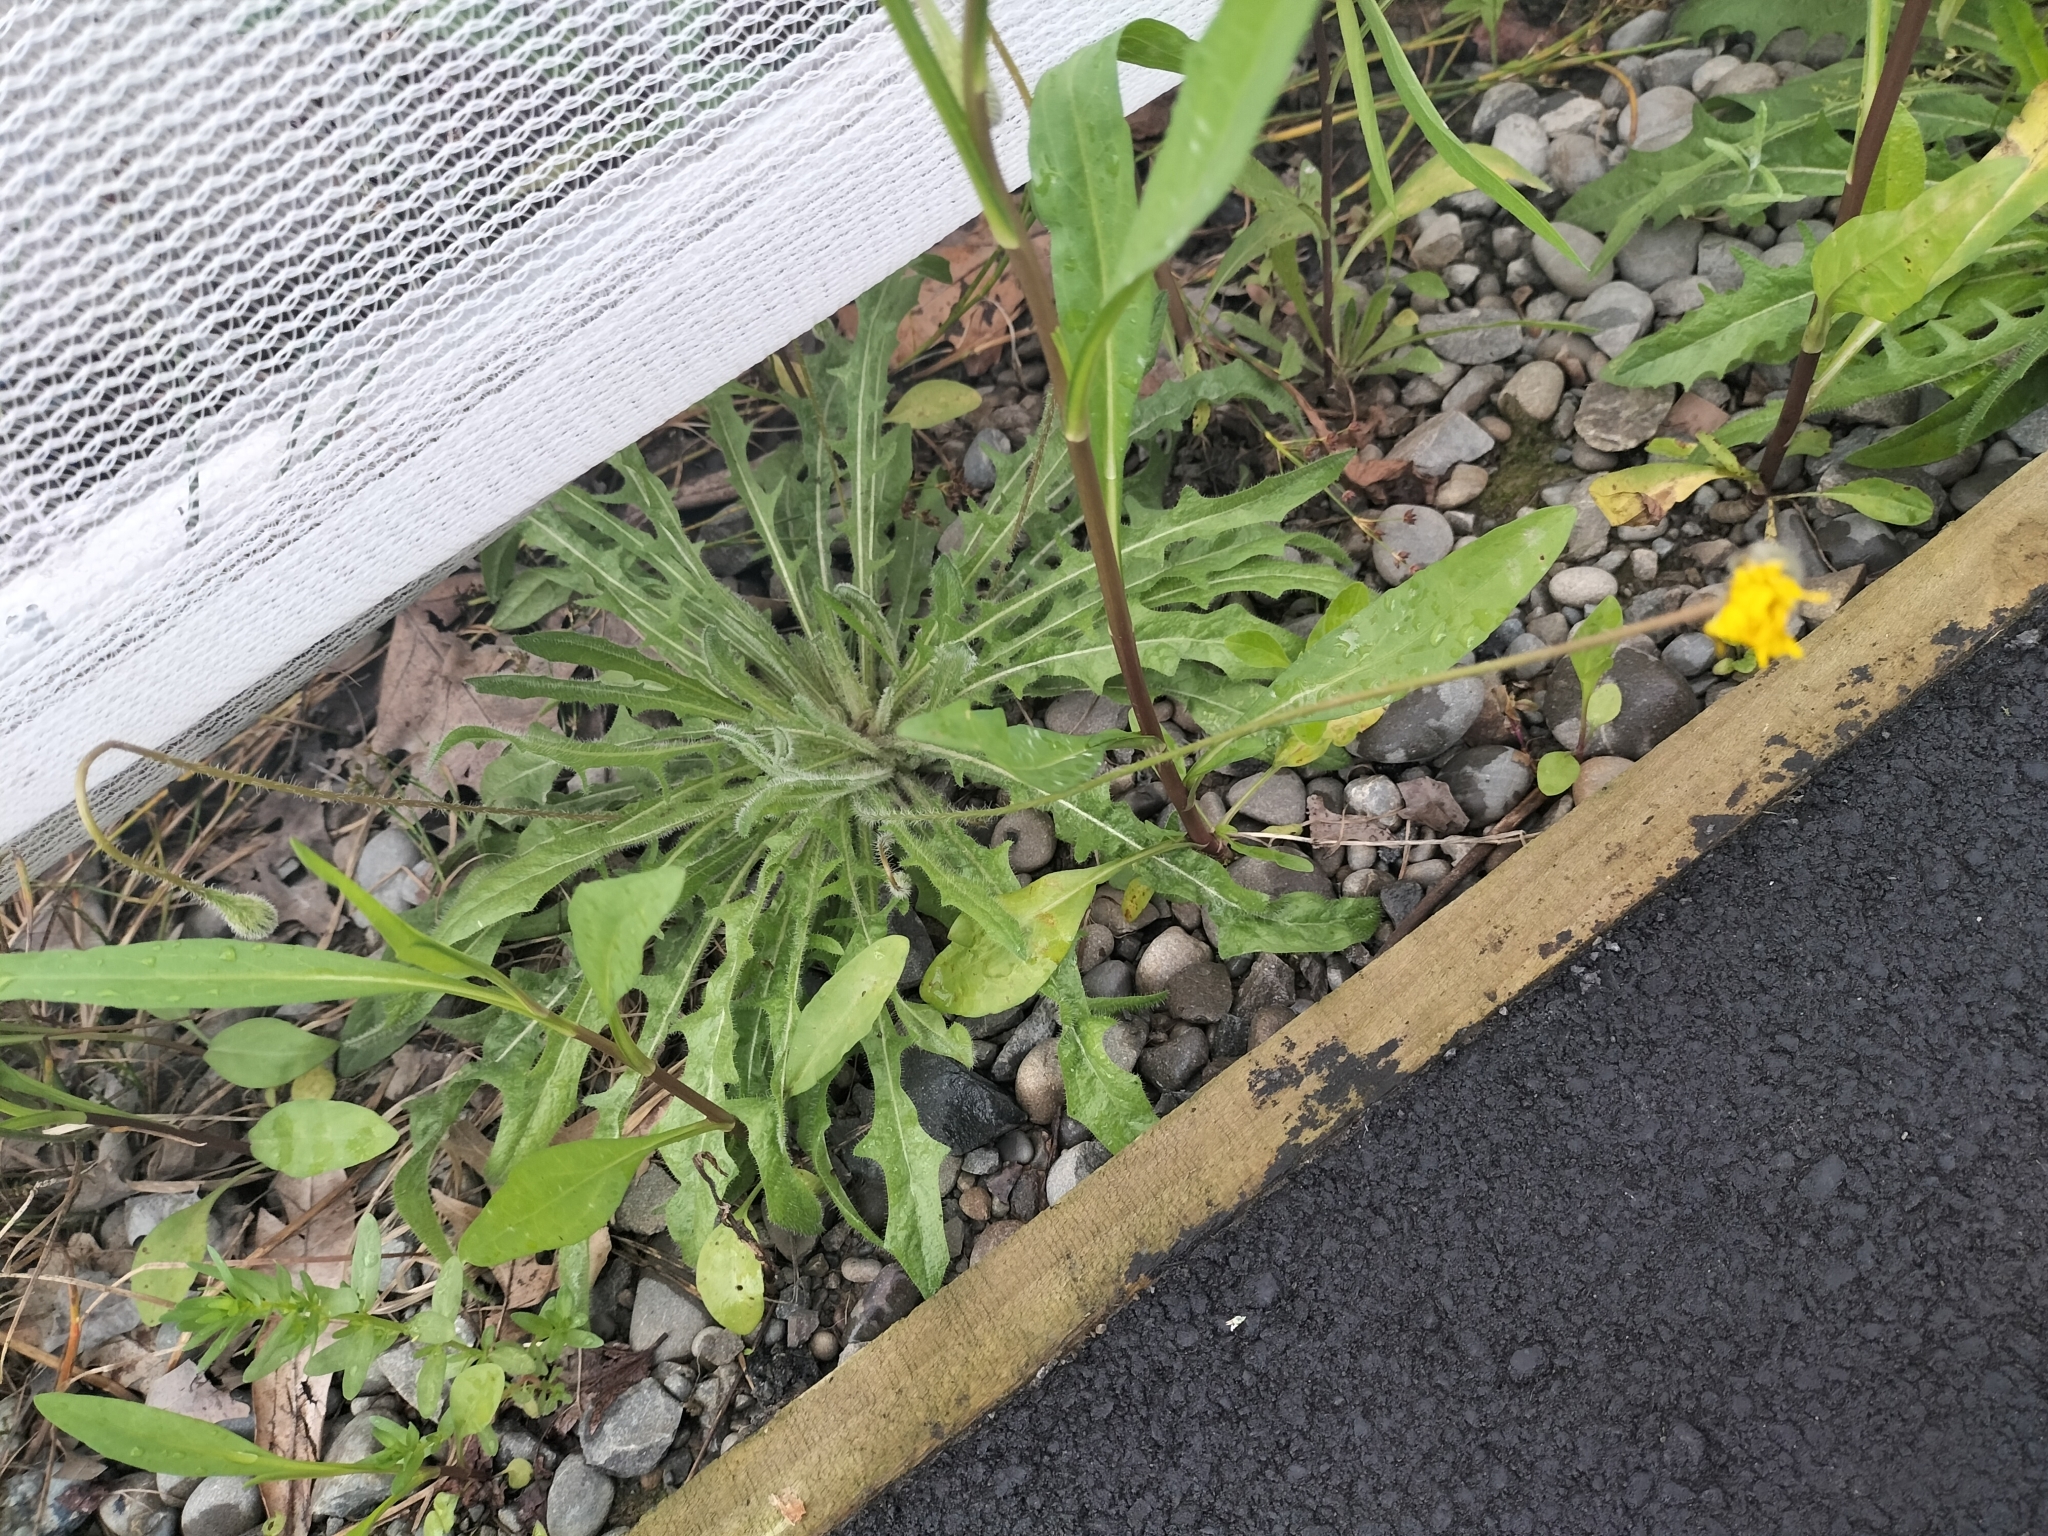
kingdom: Plantae
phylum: Tracheophyta
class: Magnoliopsida
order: Asterales
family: Asteraceae
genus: Hypochaeris
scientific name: Hypochaeris radicata
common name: Flatweed
